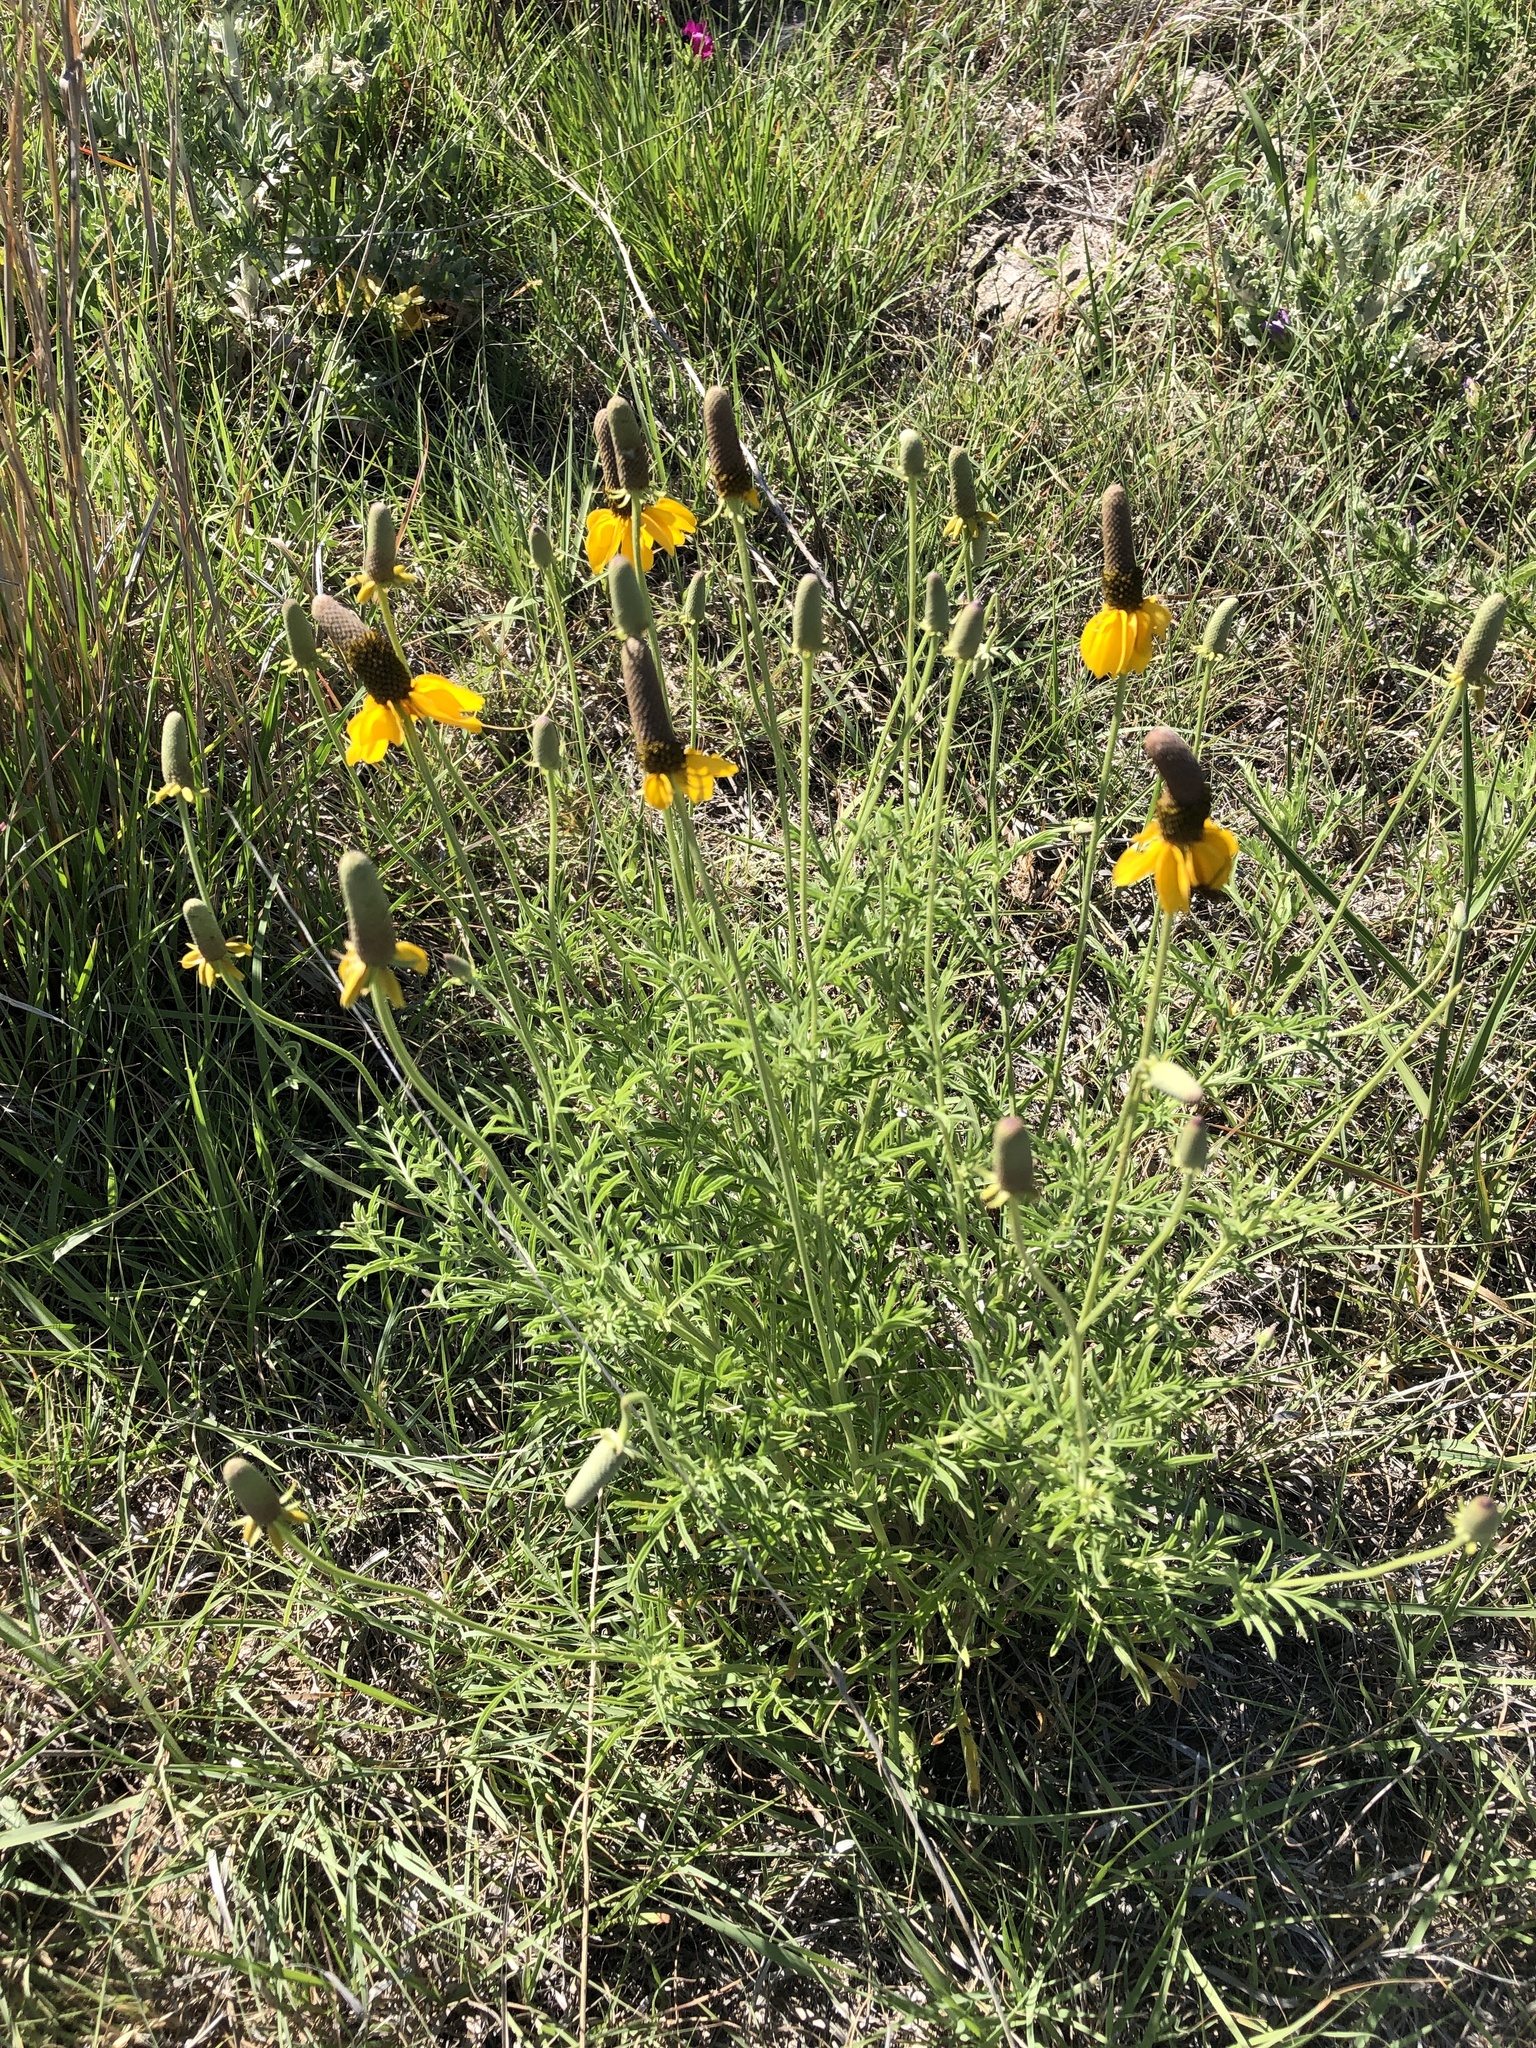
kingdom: Plantae
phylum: Tracheophyta
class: Magnoliopsida
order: Asterales
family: Asteraceae
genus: Ratibida
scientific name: Ratibida columnifera
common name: Prairie coneflower
